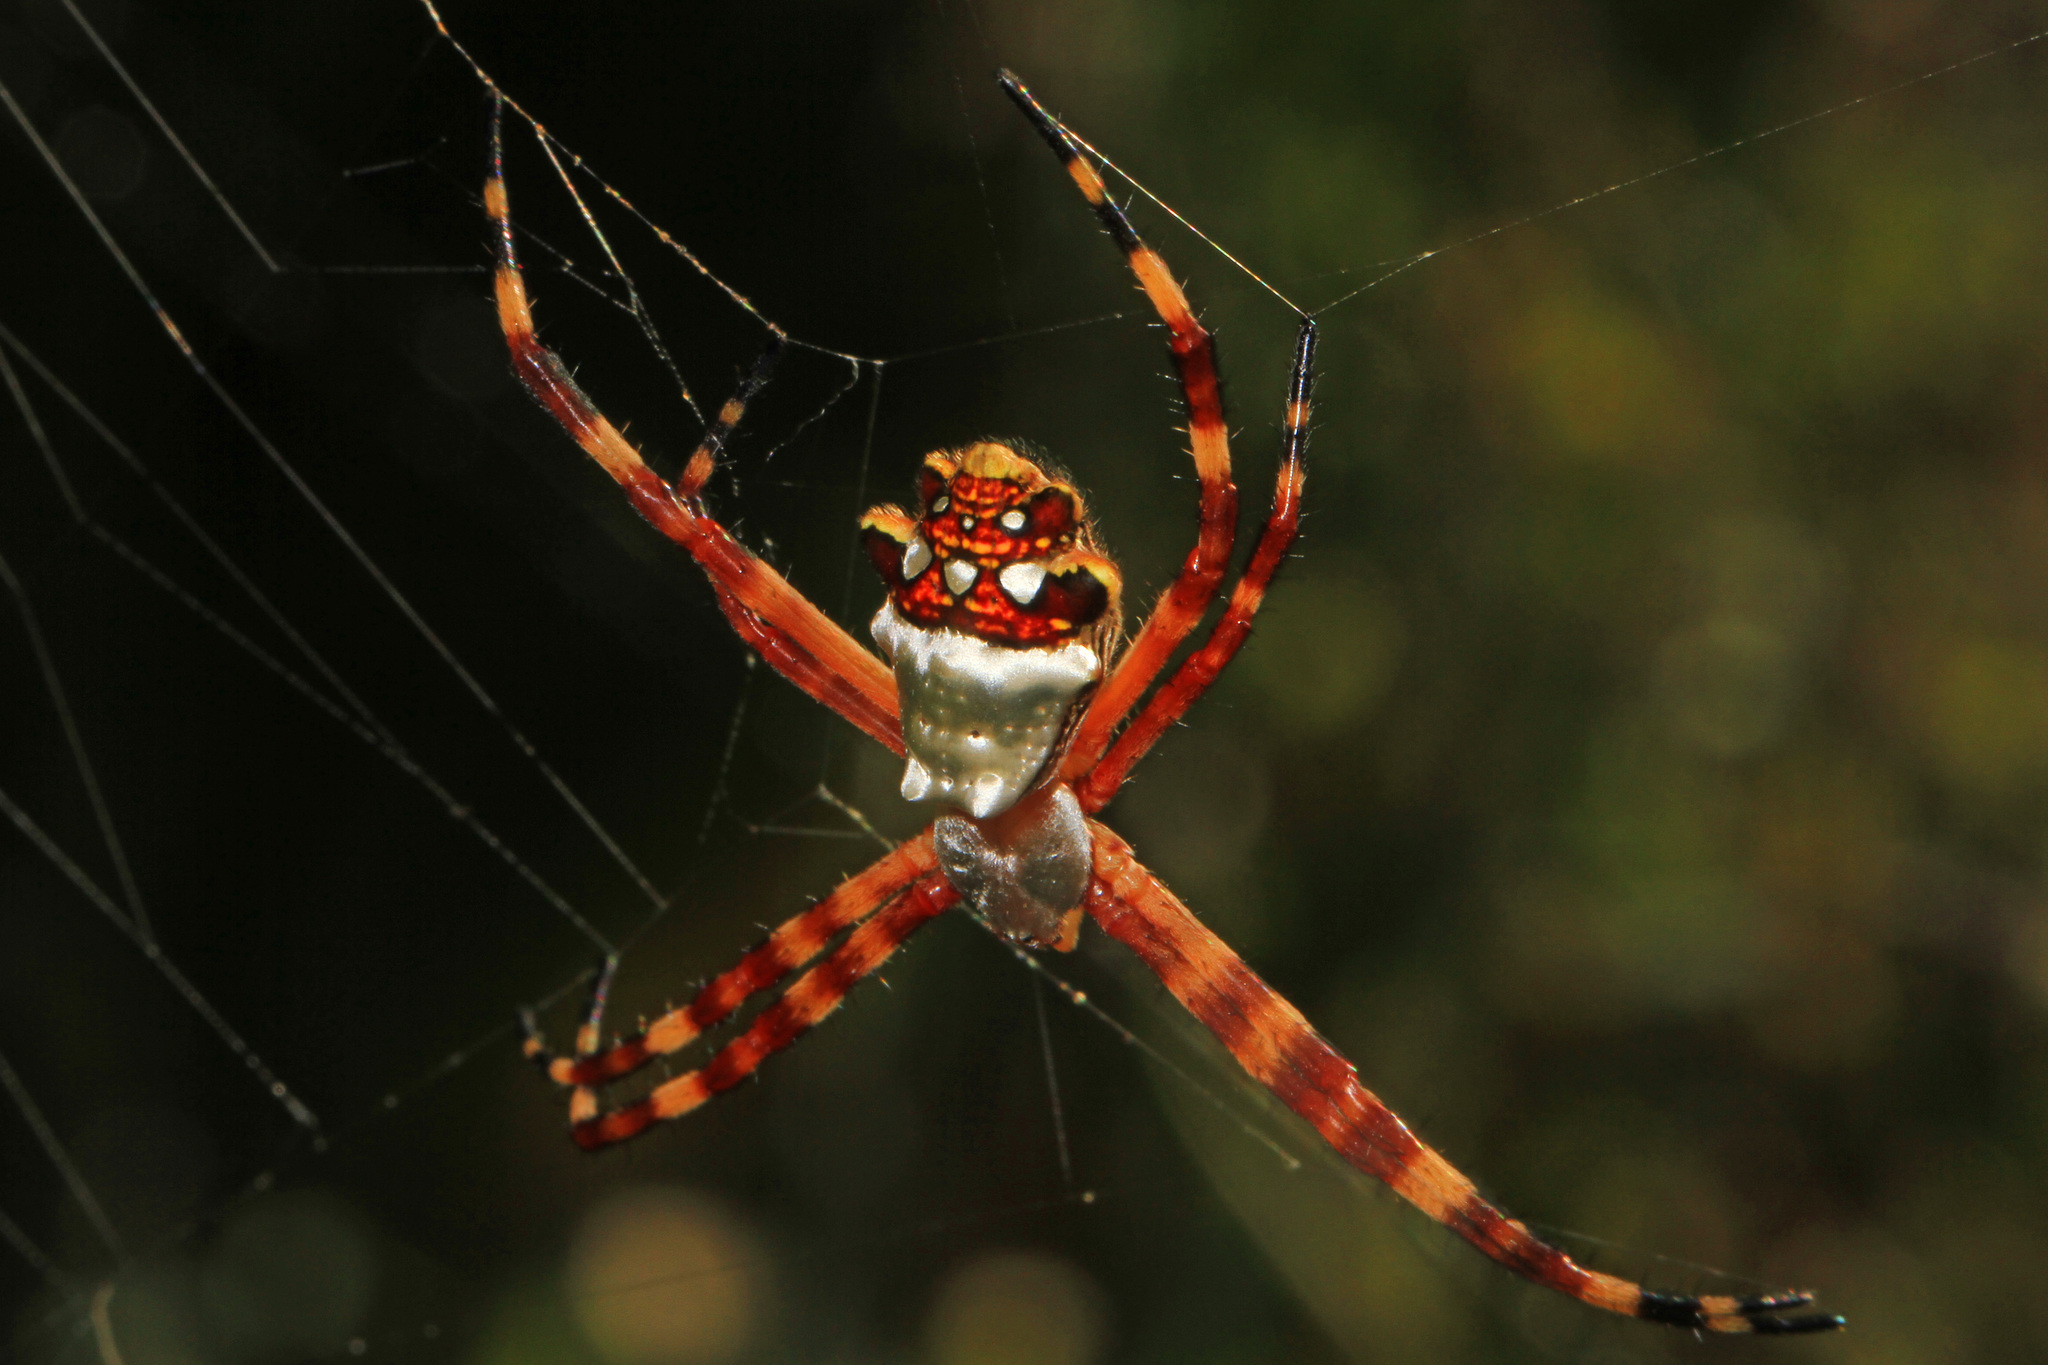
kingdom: Animalia
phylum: Arthropoda
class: Arachnida
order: Araneae
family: Araneidae
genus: Argiope
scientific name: Argiope argentata
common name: Orb weavers
